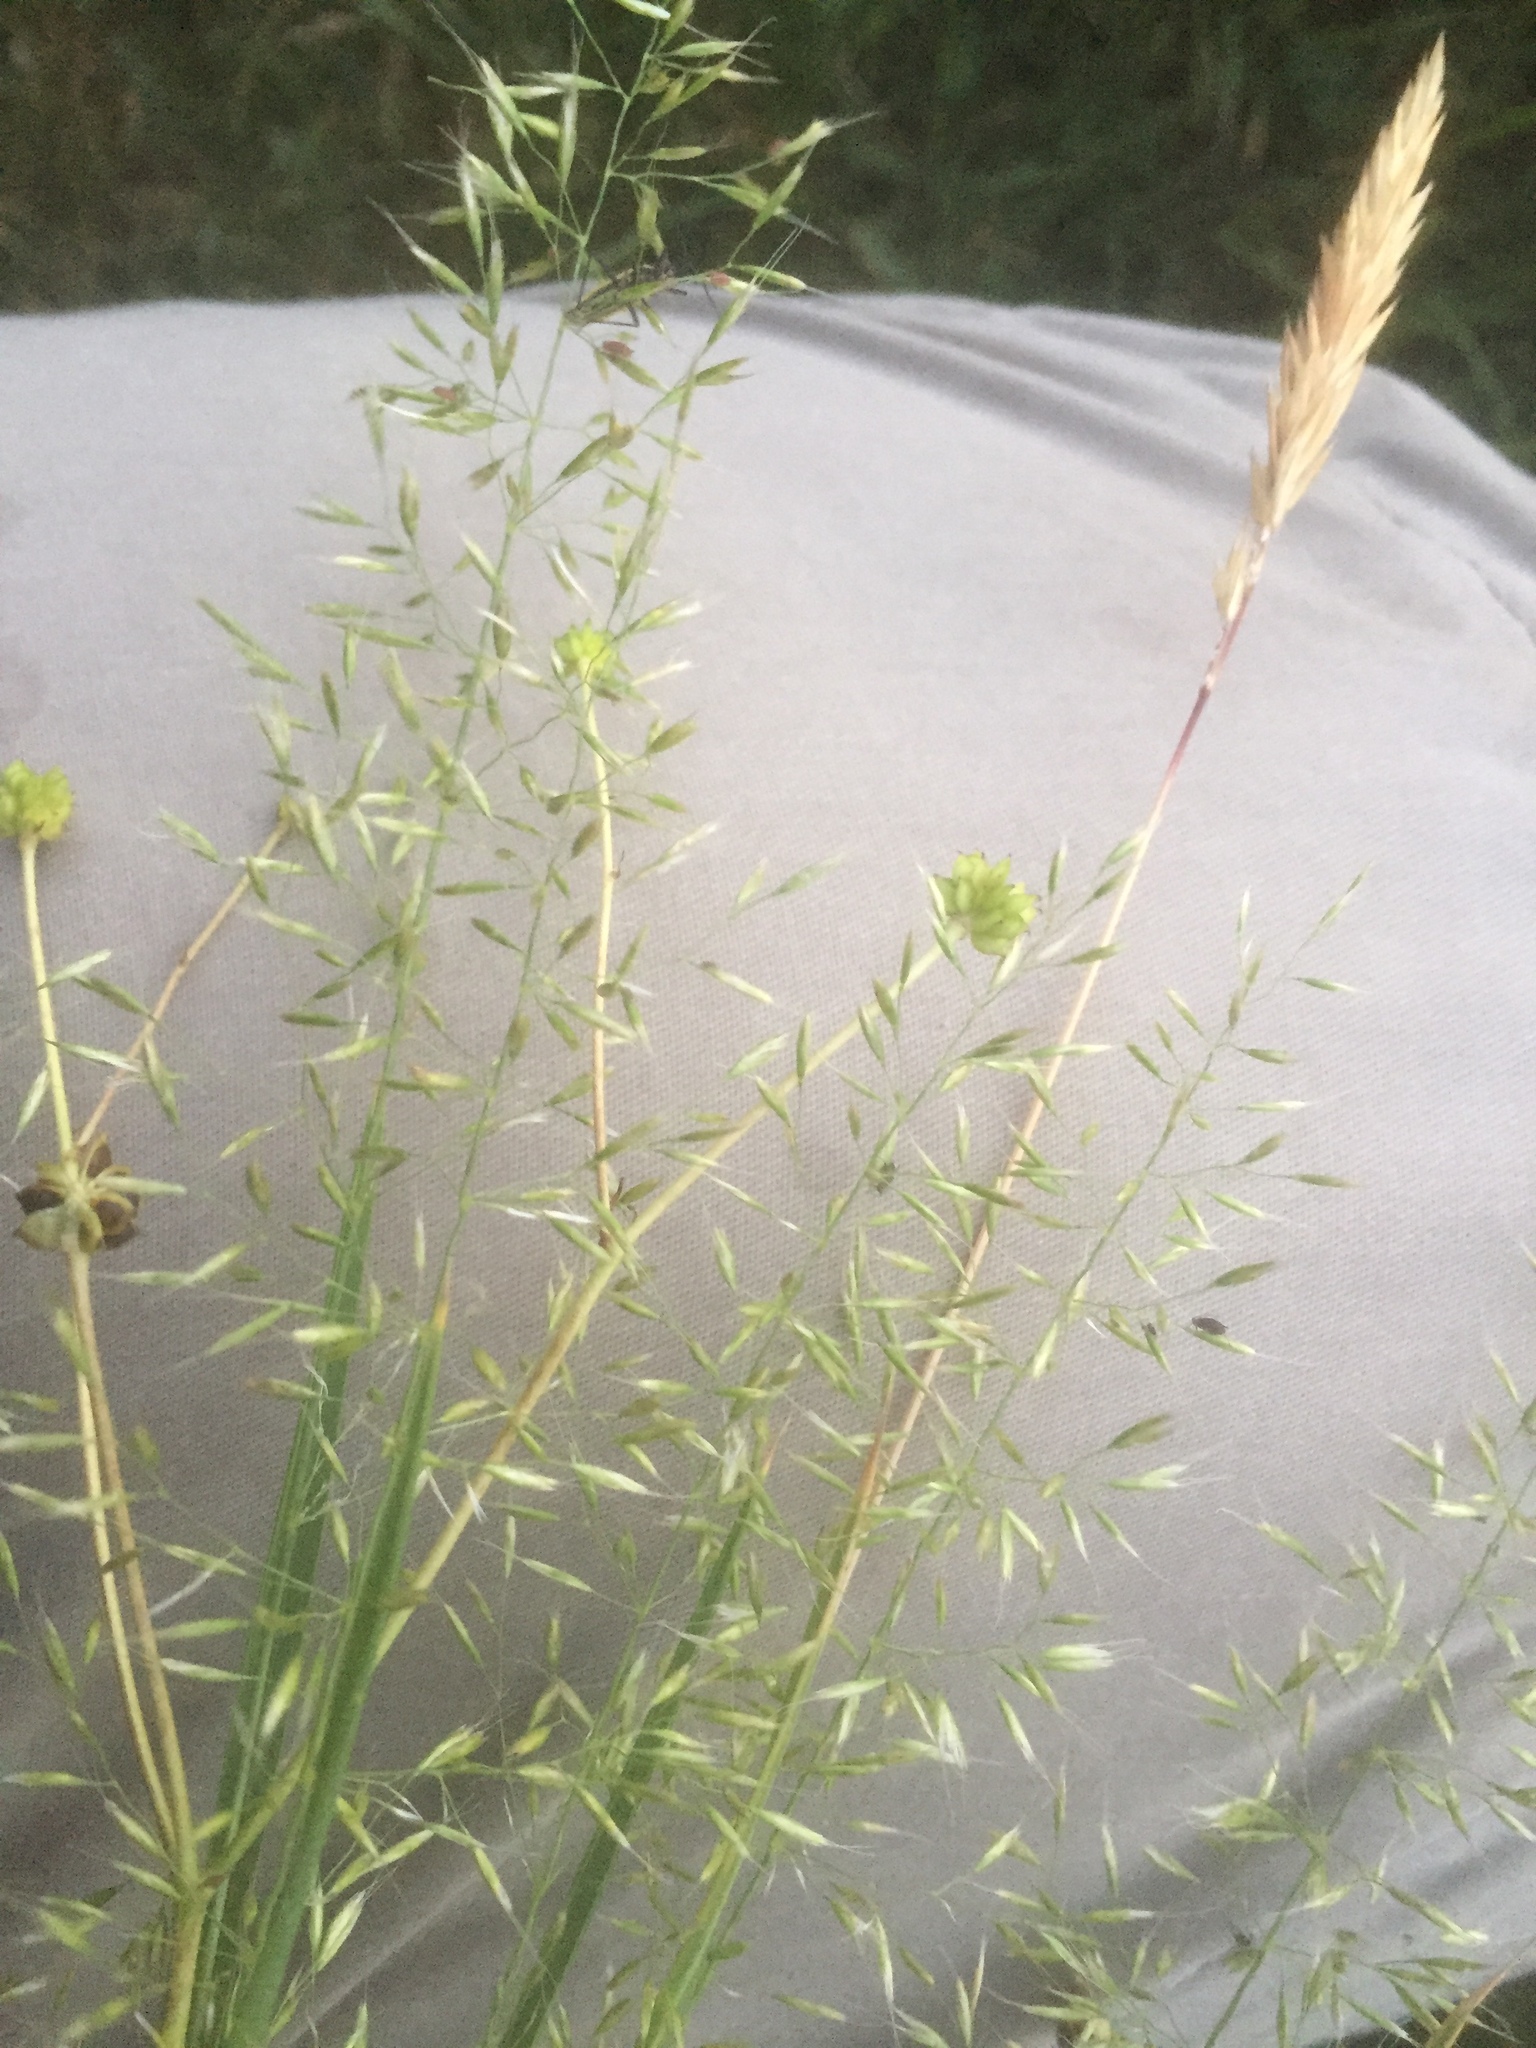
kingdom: Plantae
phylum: Tracheophyta
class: Liliopsida
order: Poales
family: Poaceae
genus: Trisetum
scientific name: Trisetum flavescens
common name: Yellow oat-grass
